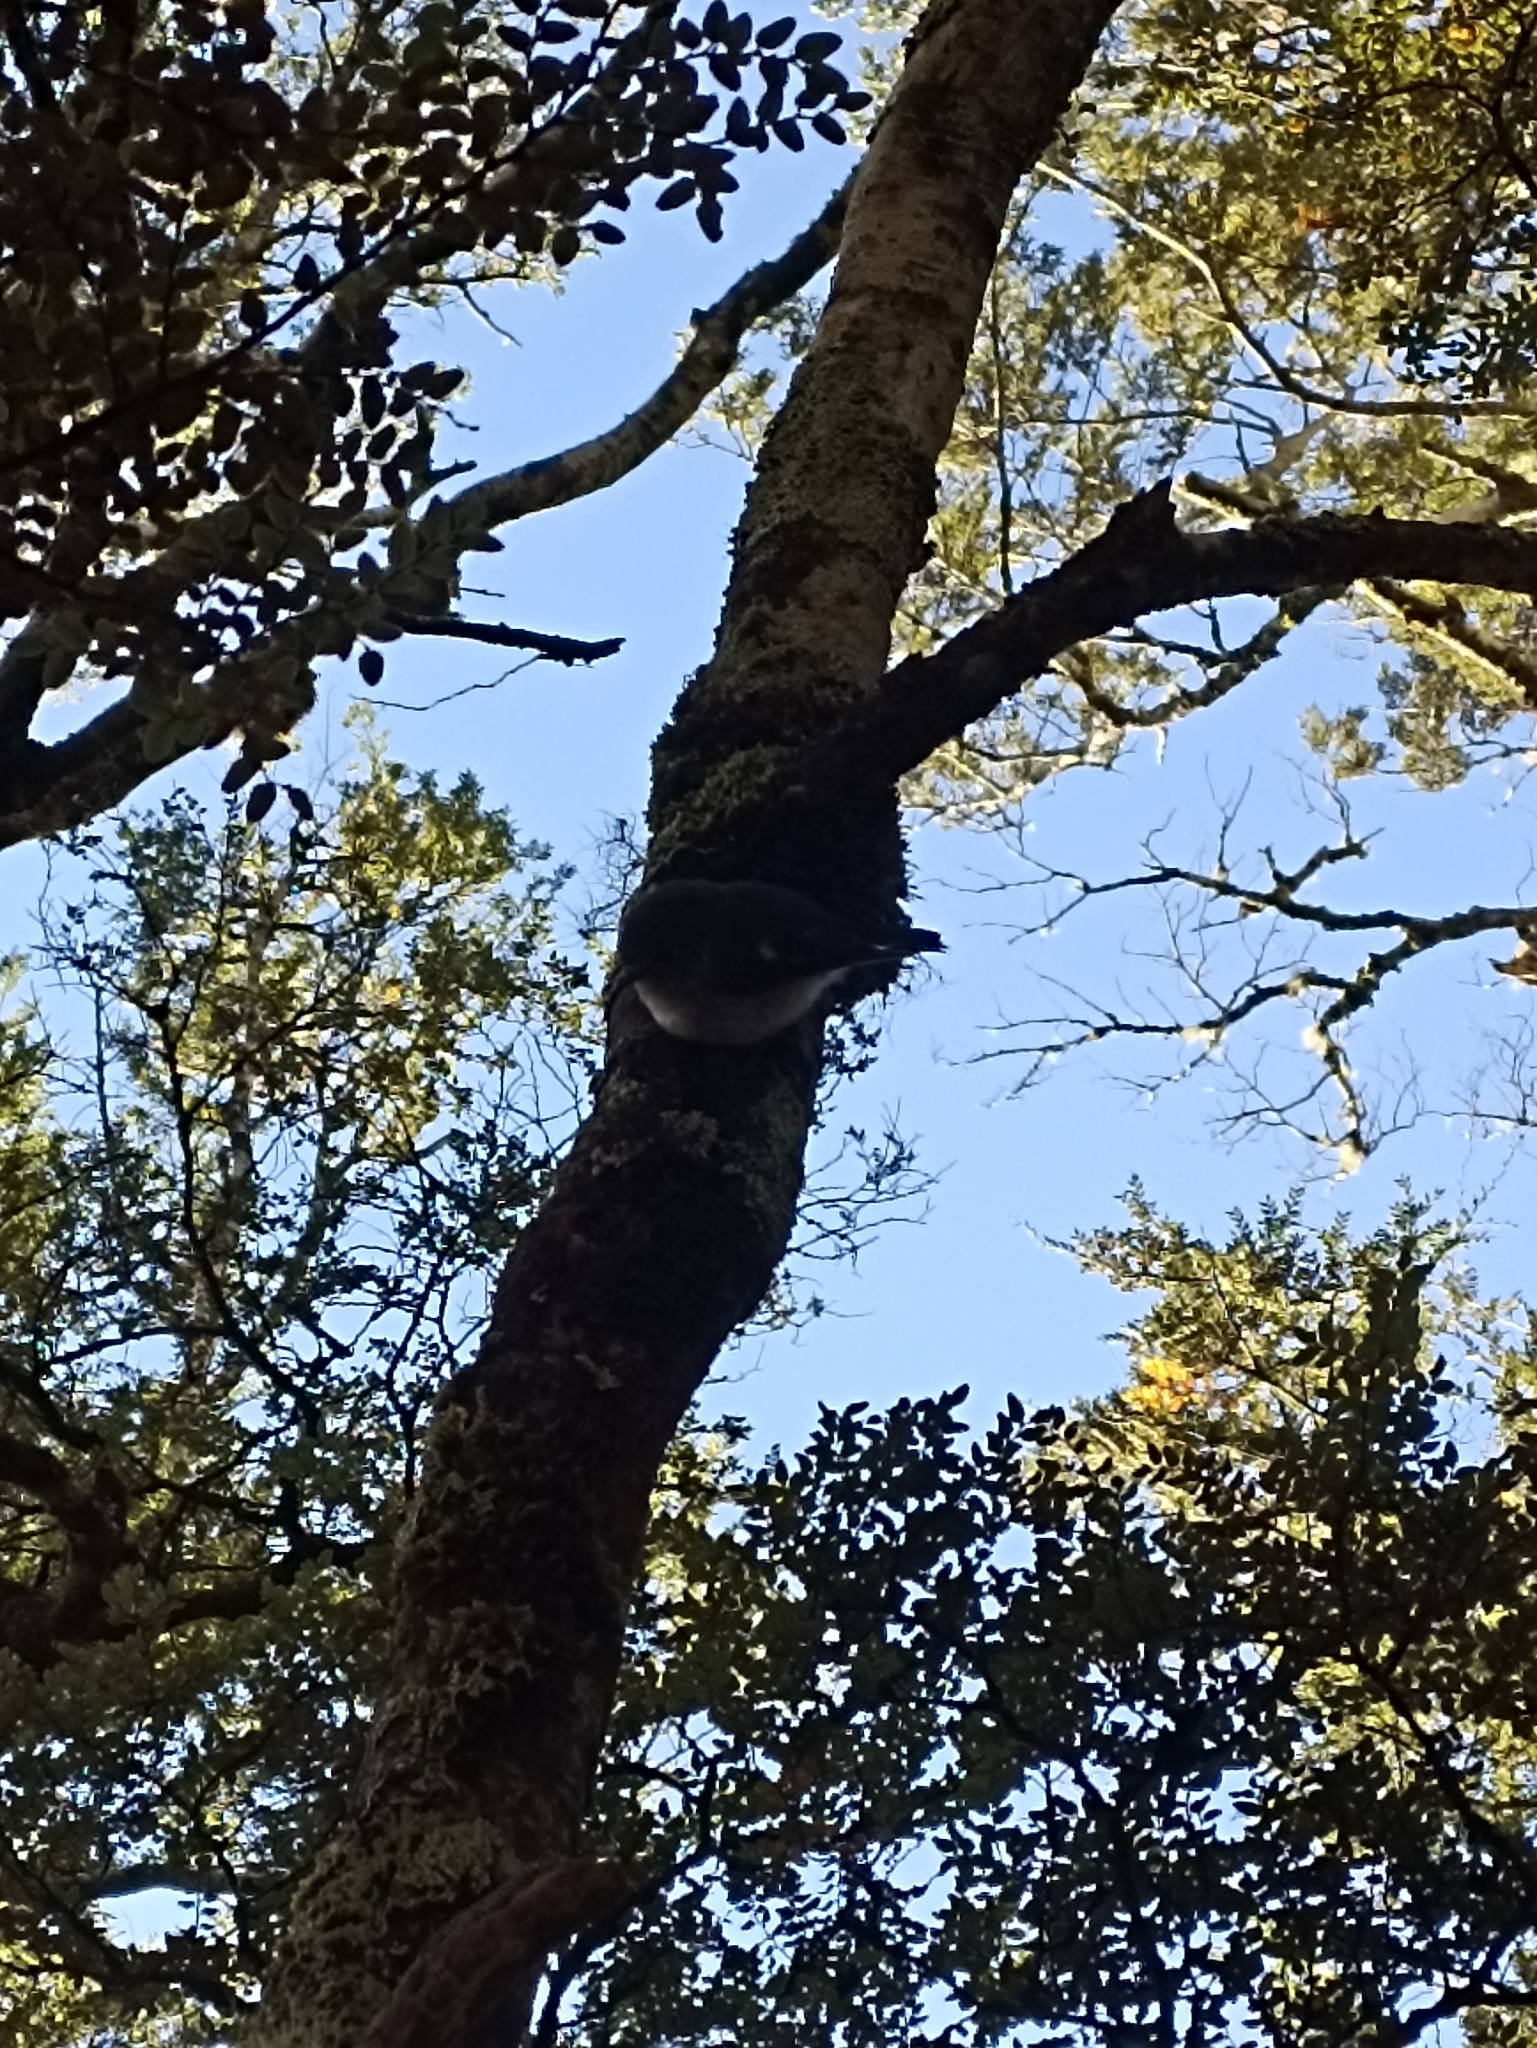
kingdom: Animalia
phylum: Chordata
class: Aves
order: Passeriformes
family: Petroicidae
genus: Petroica
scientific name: Petroica macrocephala
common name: Tomtit
